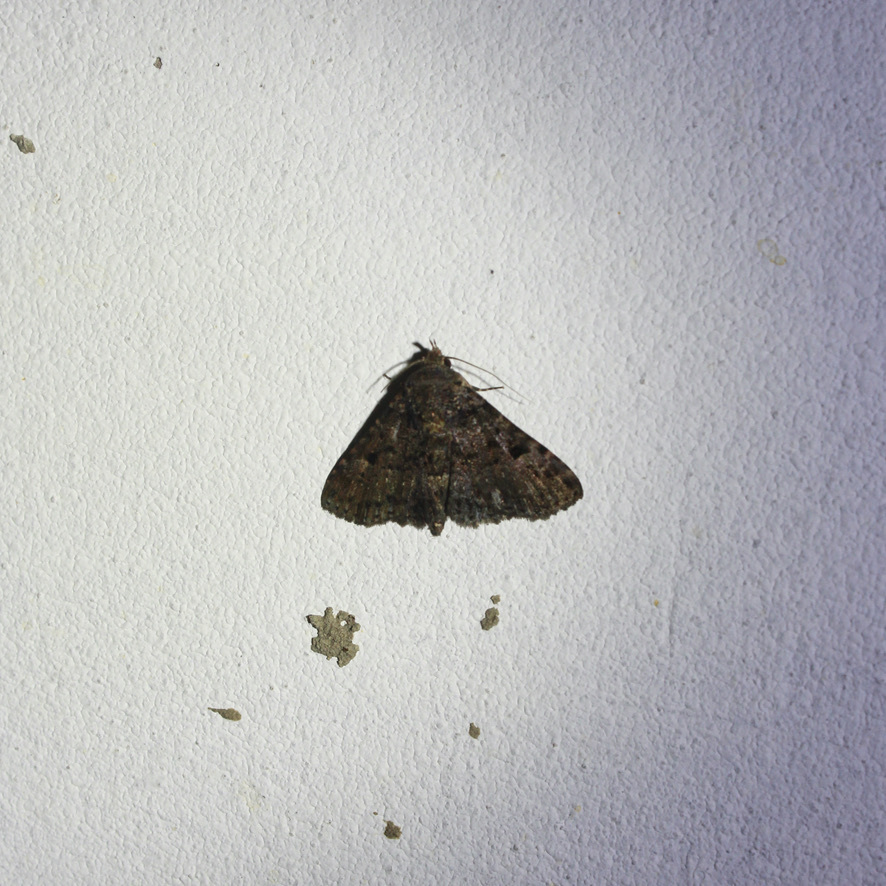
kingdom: Animalia
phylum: Arthropoda
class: Insecta
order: Lepidoptera
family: Erebidae
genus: Metalectra
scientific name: Metalectra praecisalis
